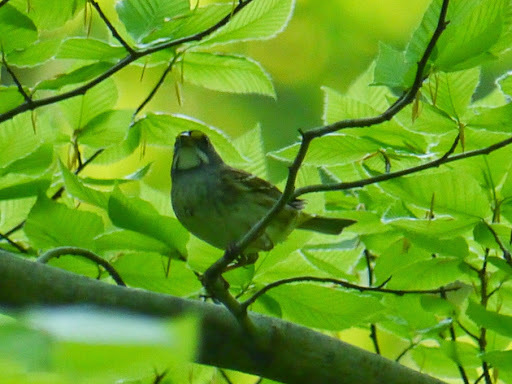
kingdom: Animalia
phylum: Chordata
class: Aves
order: Passeriformes
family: Passerellidae
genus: Zonotrichia
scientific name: Zonotrichia albicollis
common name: White-throated sparrow
